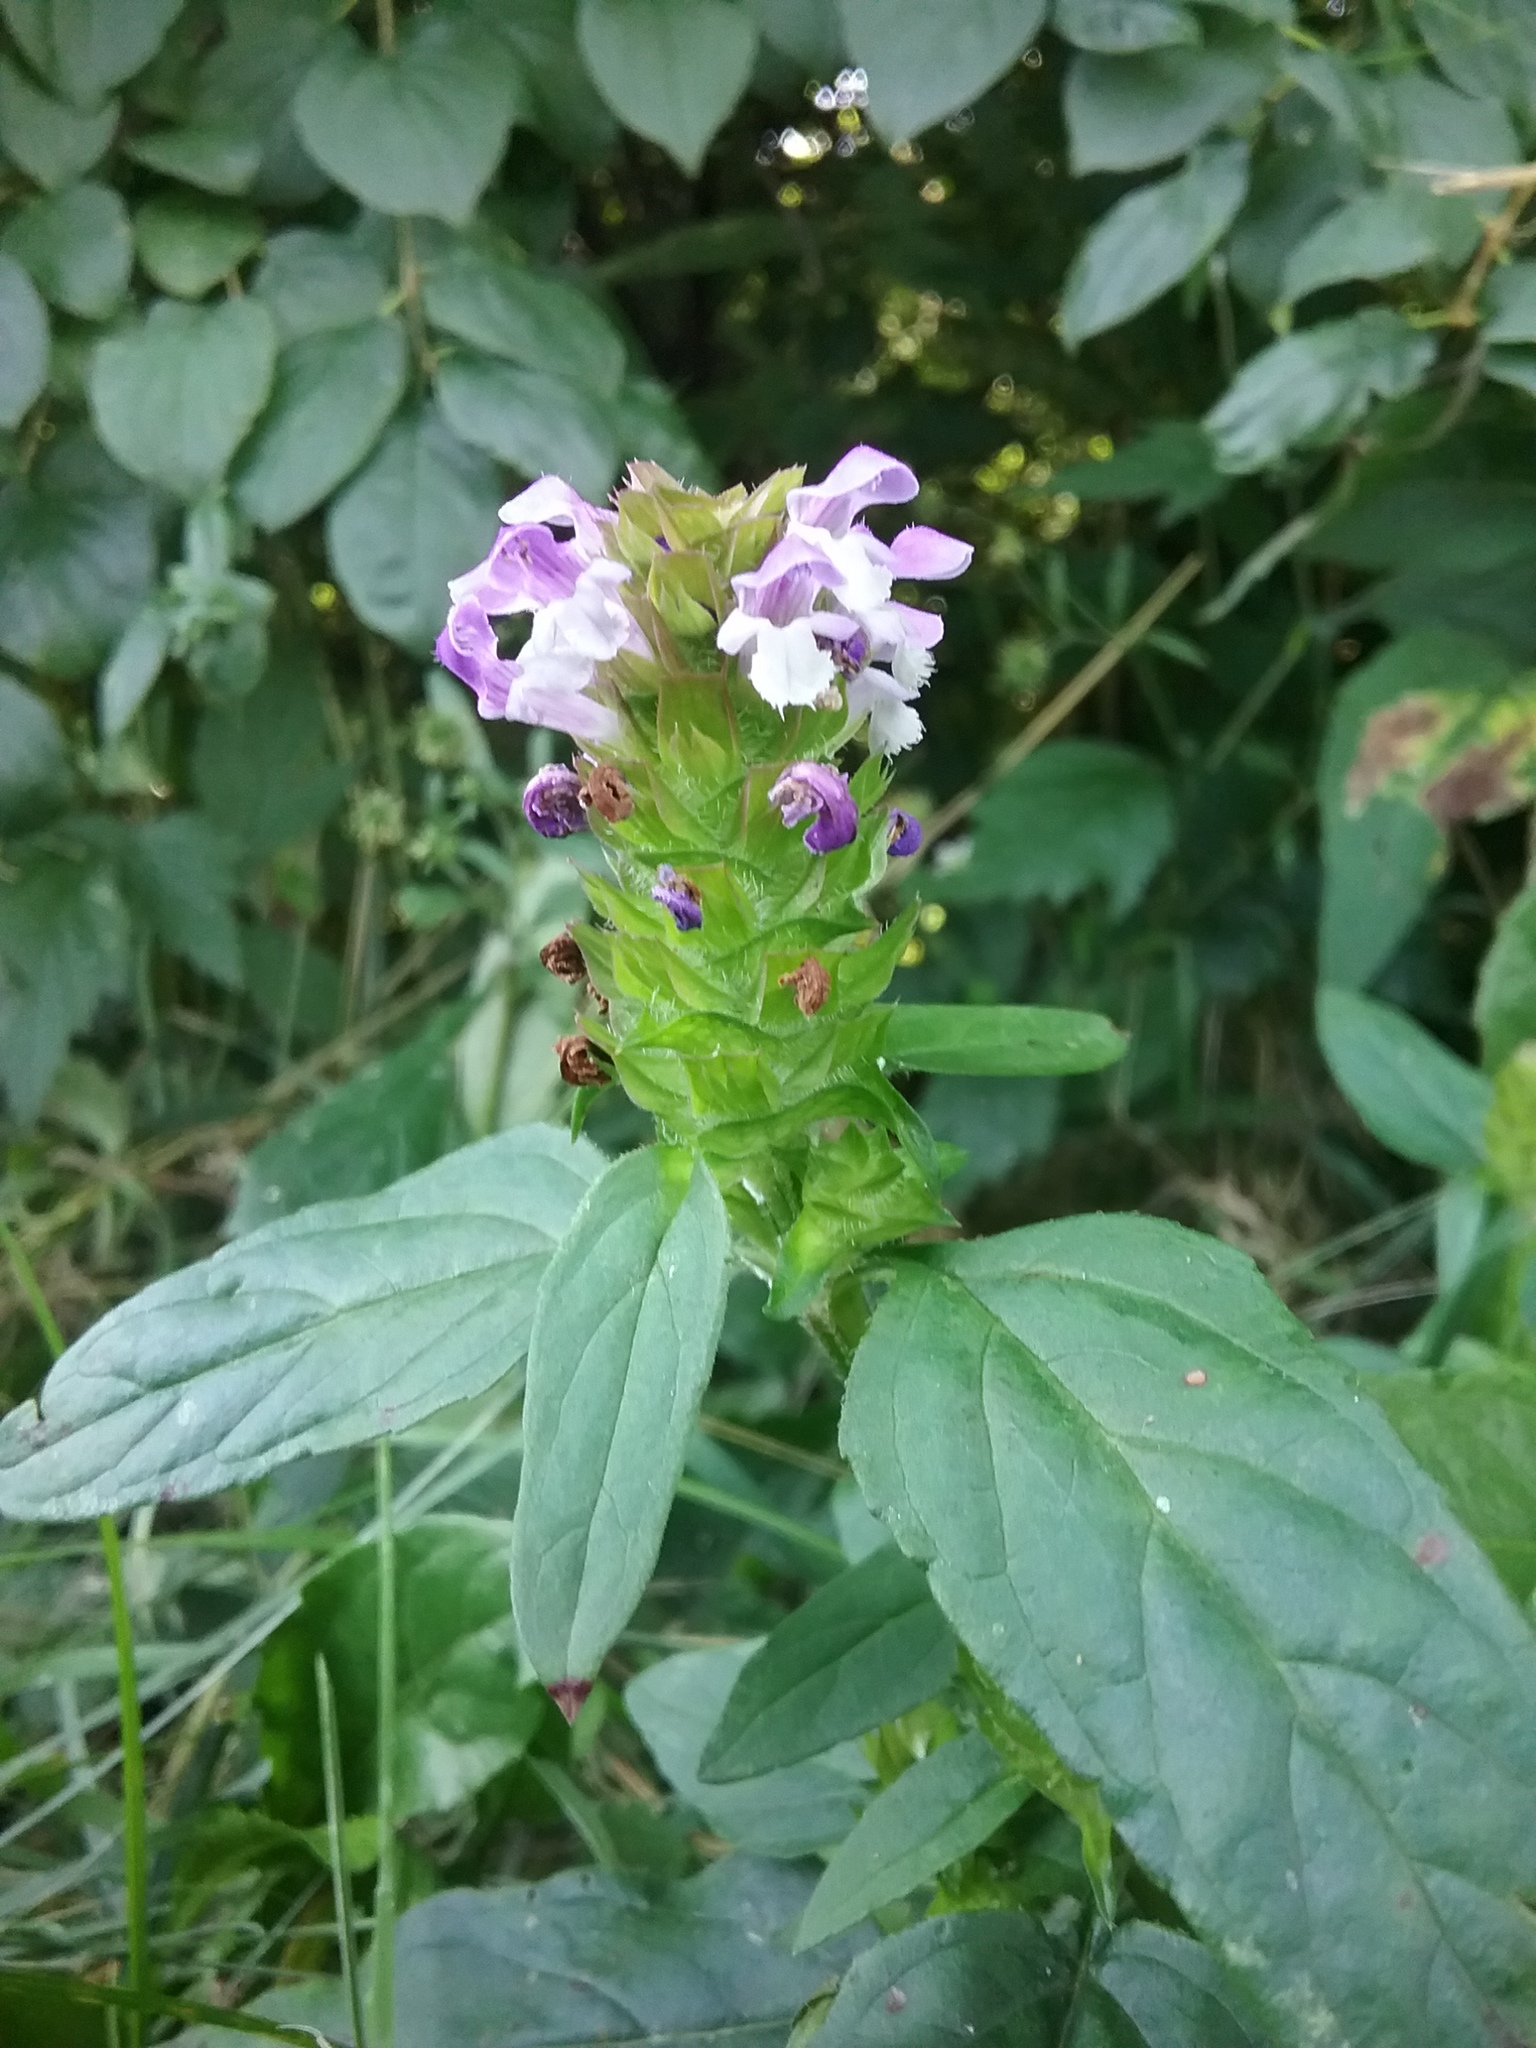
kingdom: Plantae
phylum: Tracheophyta
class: Magnoliopsida
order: Lamiales
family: Lamiaceae
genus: Prunella
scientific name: Prunella vulgaris
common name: Heal-all
